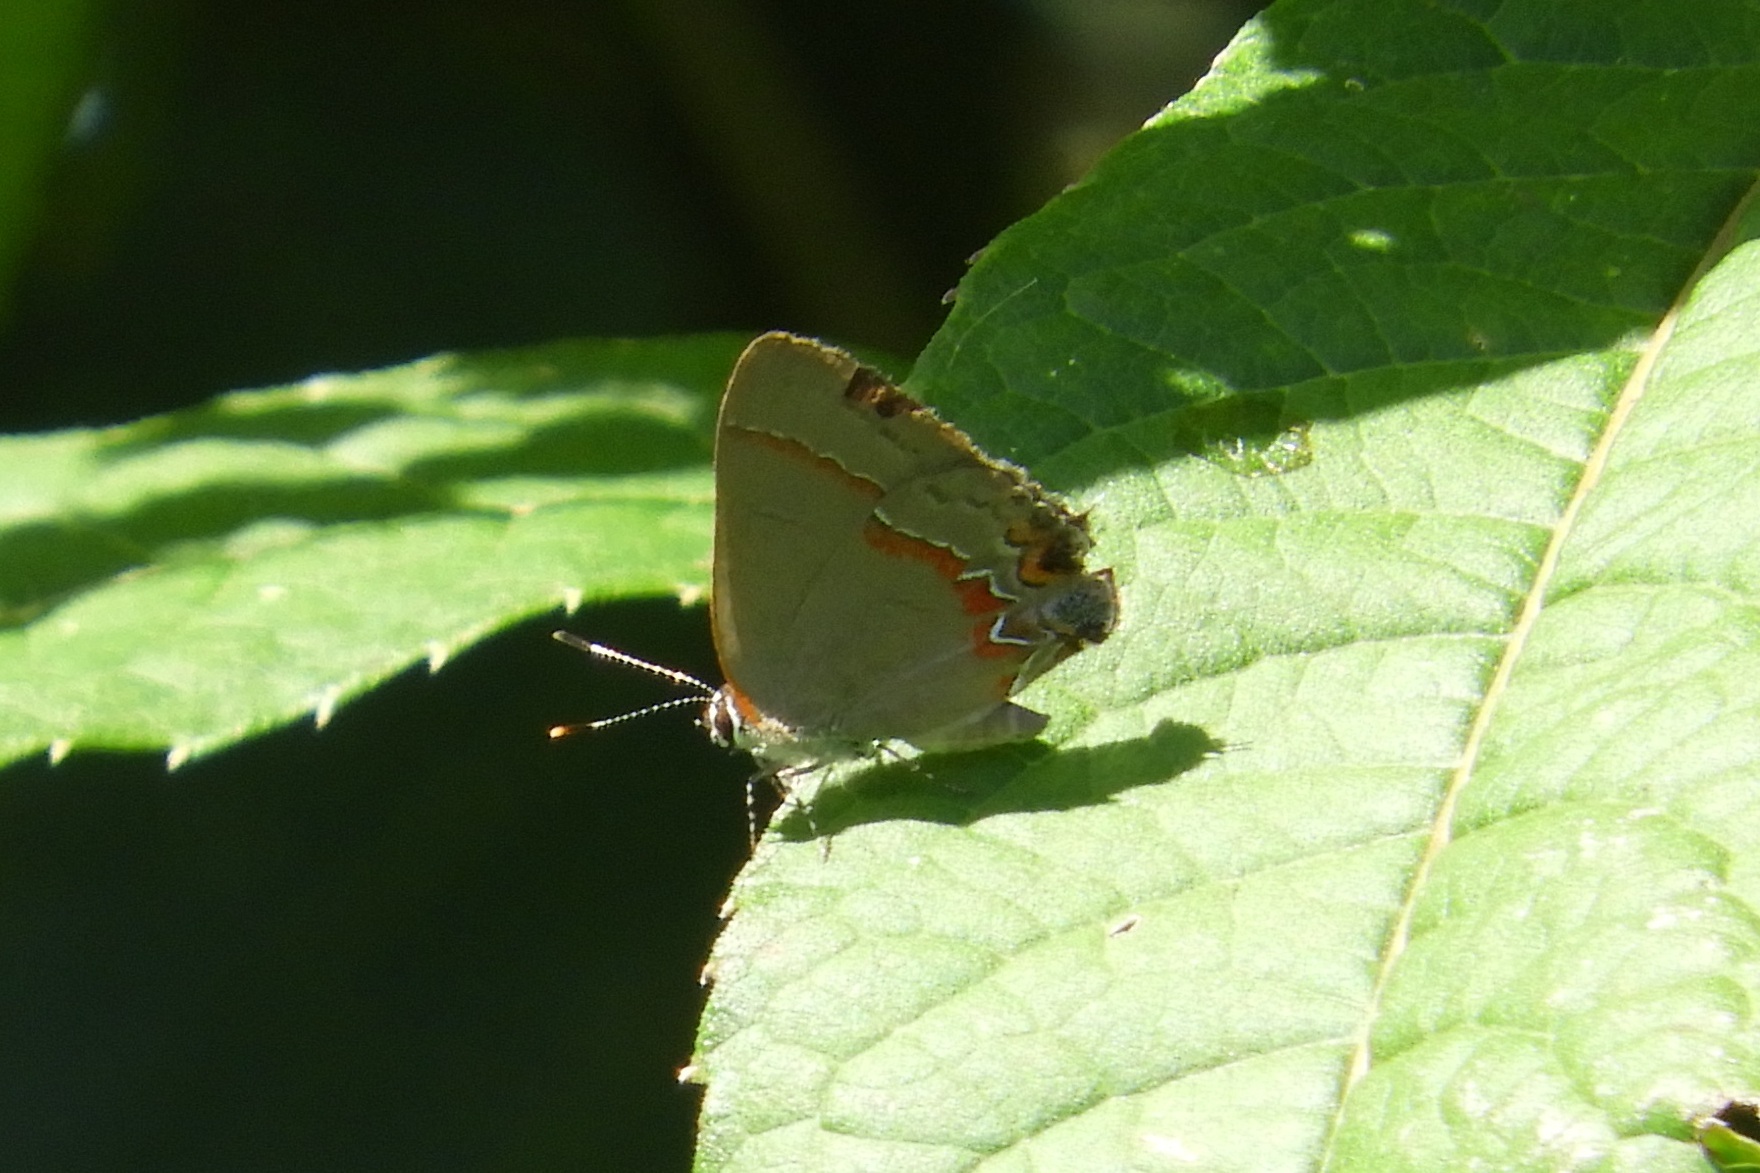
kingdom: Animalia
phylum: Arthropoda
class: Insecta
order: Lepidoptera
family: Lycaenidae
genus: Calycopis
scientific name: Calycopis cecrops
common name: Red-banded hairstreak
